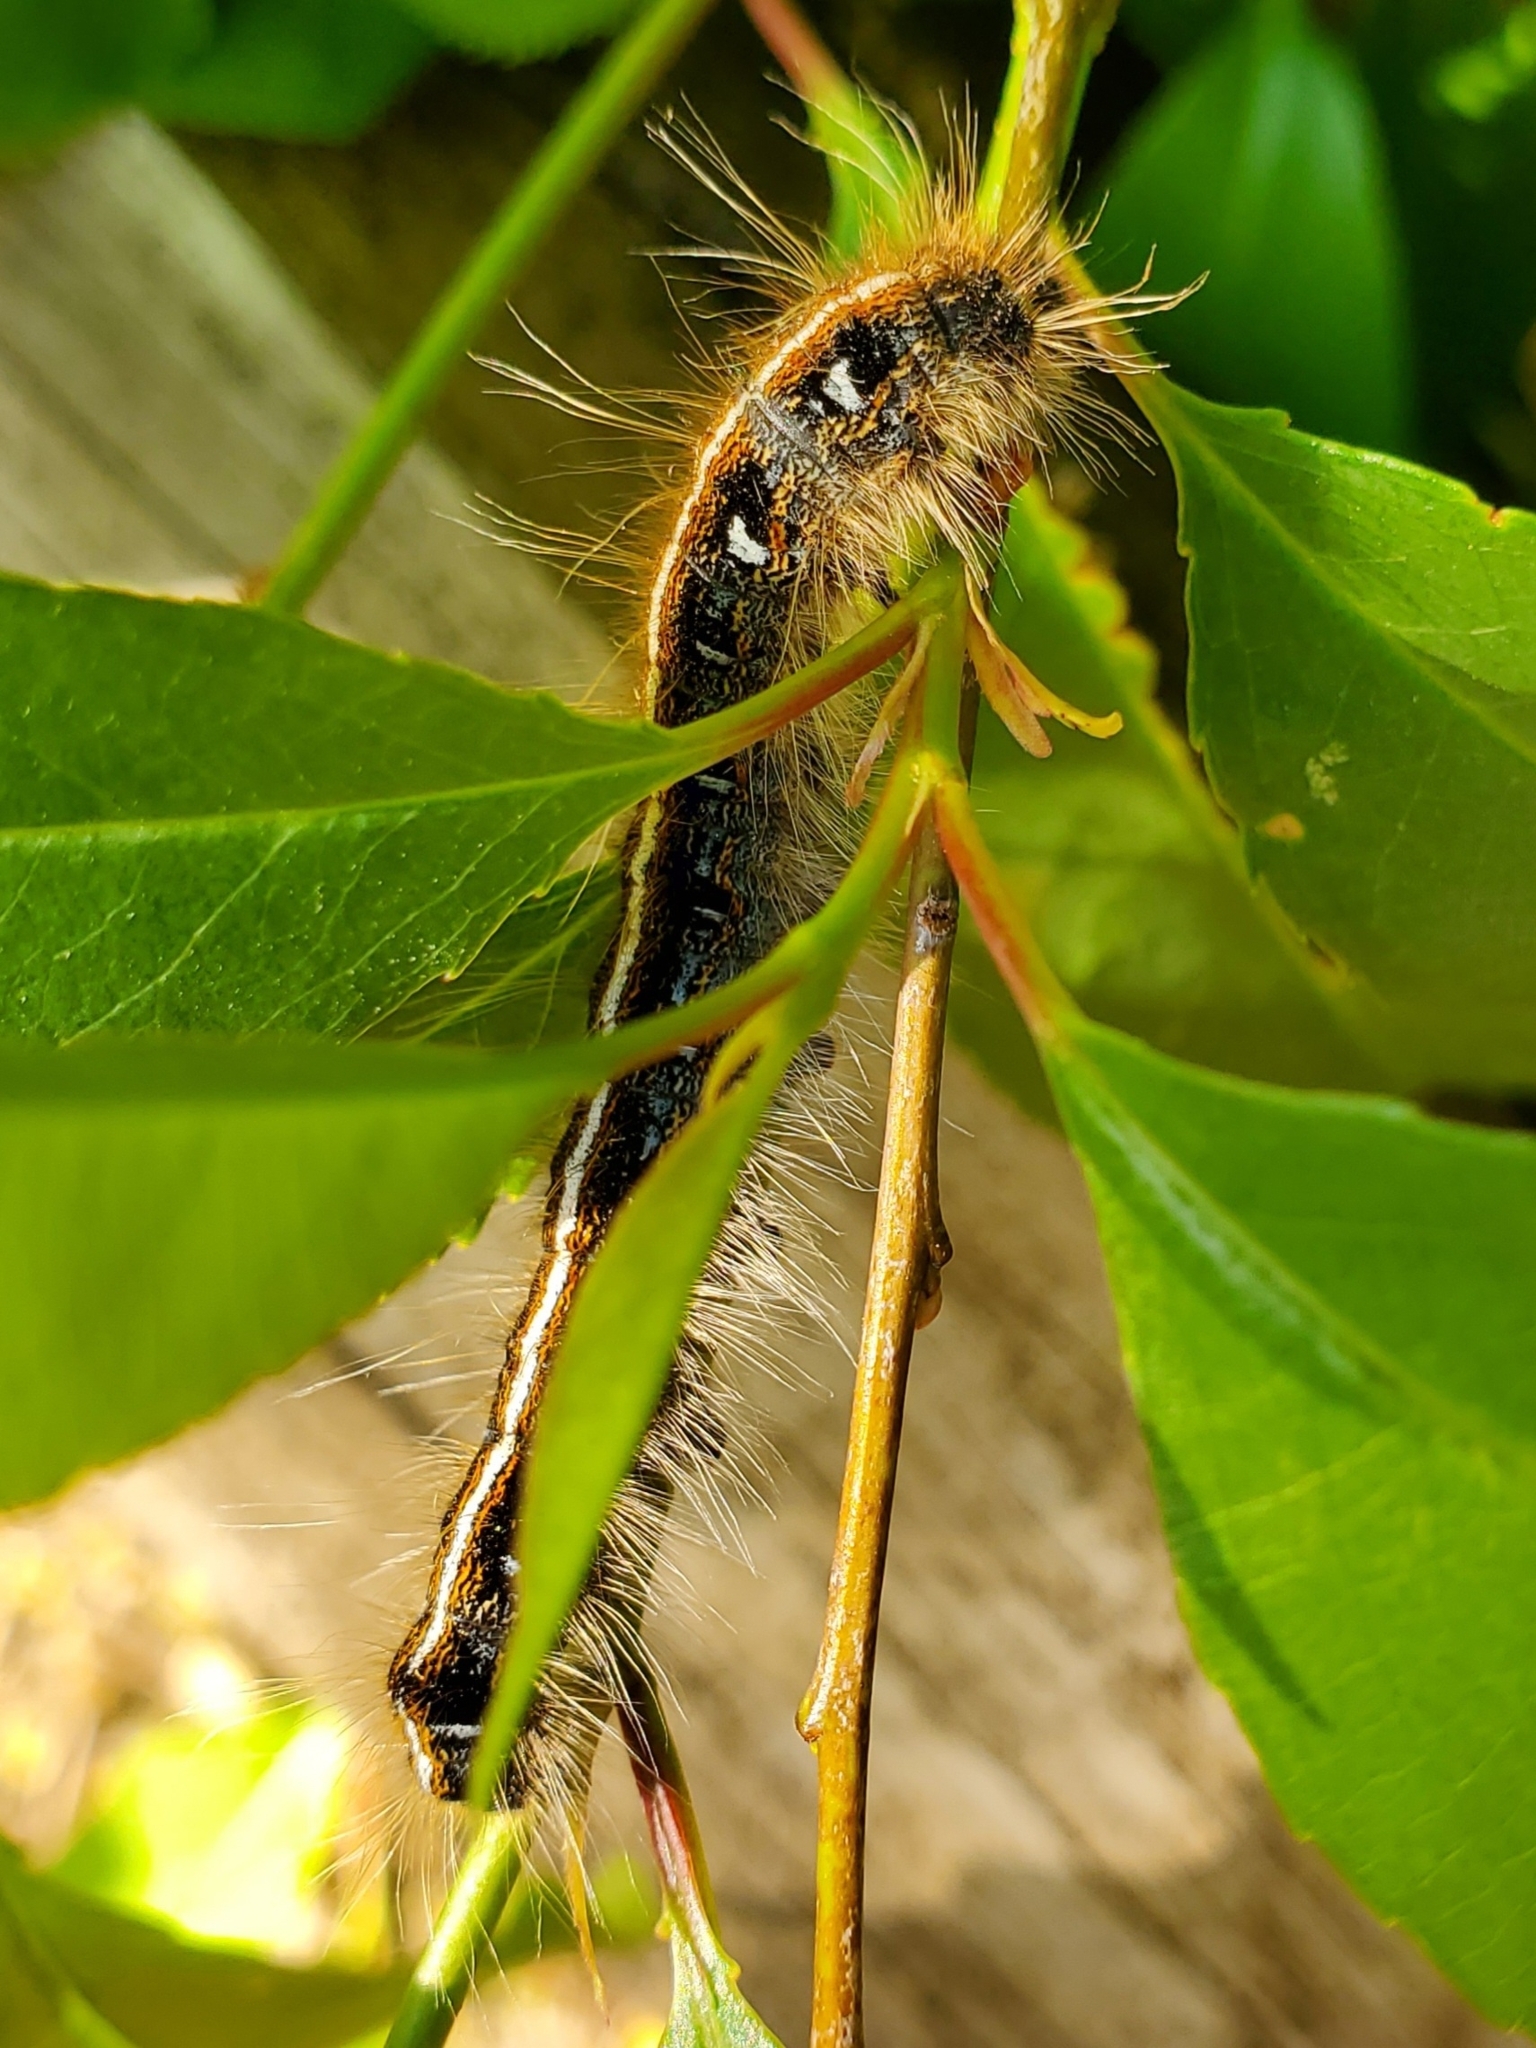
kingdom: Animalia
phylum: Arthropoda
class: Insecta
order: Lepidoptera
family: Lasiocampidae
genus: Malacosoma
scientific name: Malacosoma americana
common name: Eastern tent caterpillar moth
